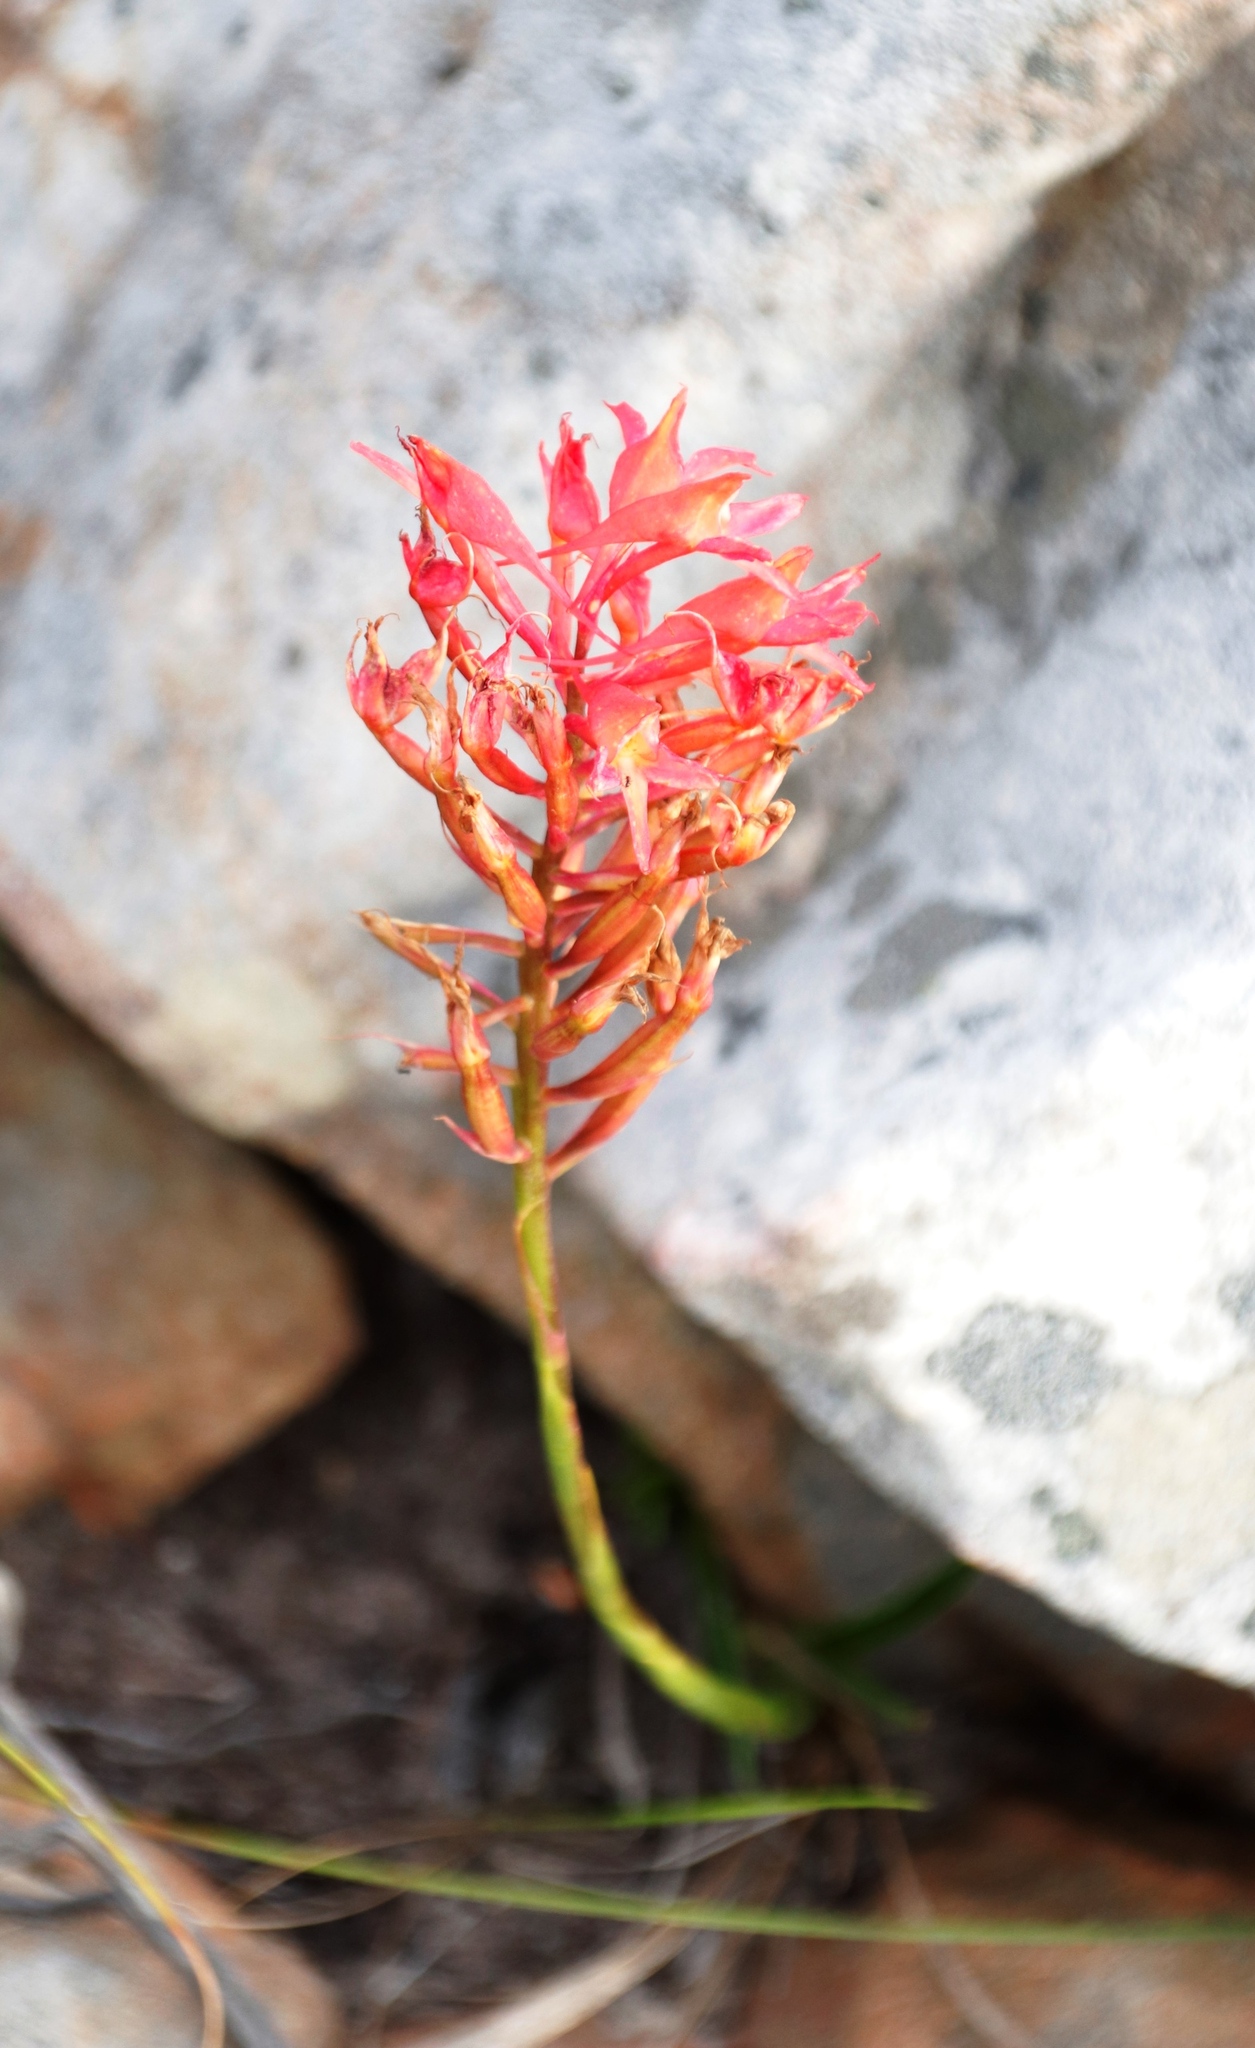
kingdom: Plantae
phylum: Tracheophyta
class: Liliopsida
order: Asparagales
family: Orchidaceae
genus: Disa
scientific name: Disa ferruginea
